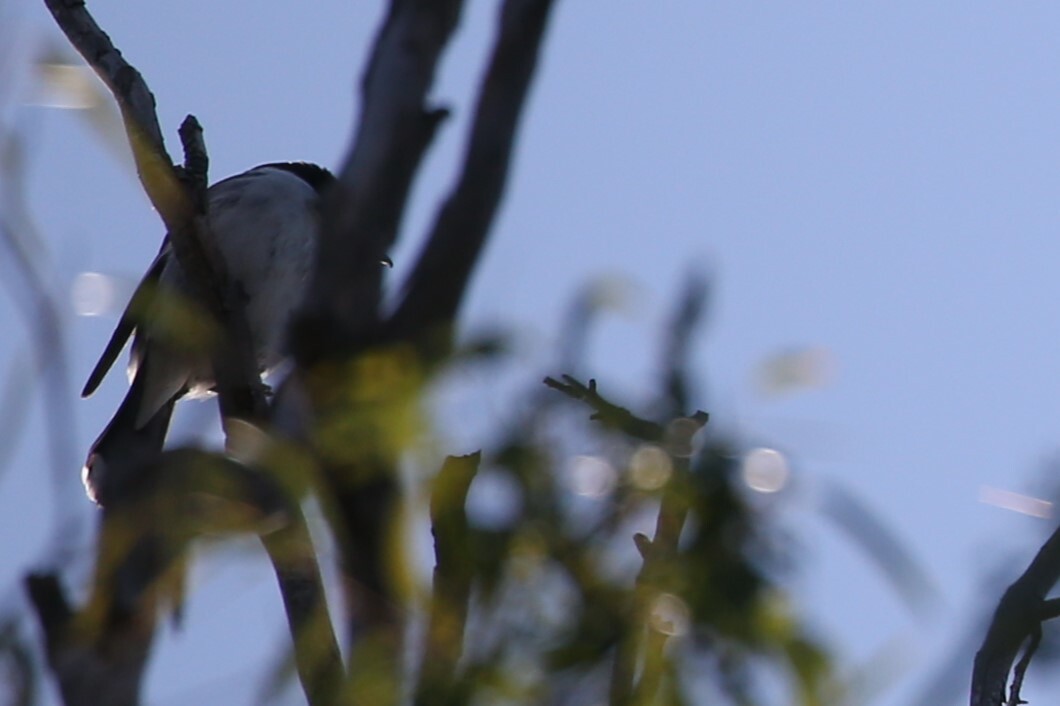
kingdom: Animalia
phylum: Chordata
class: Aves
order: Passeriformes
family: Cracticidae
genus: Cracticus
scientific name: Cracticus torquatus
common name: Grey butcherbird
